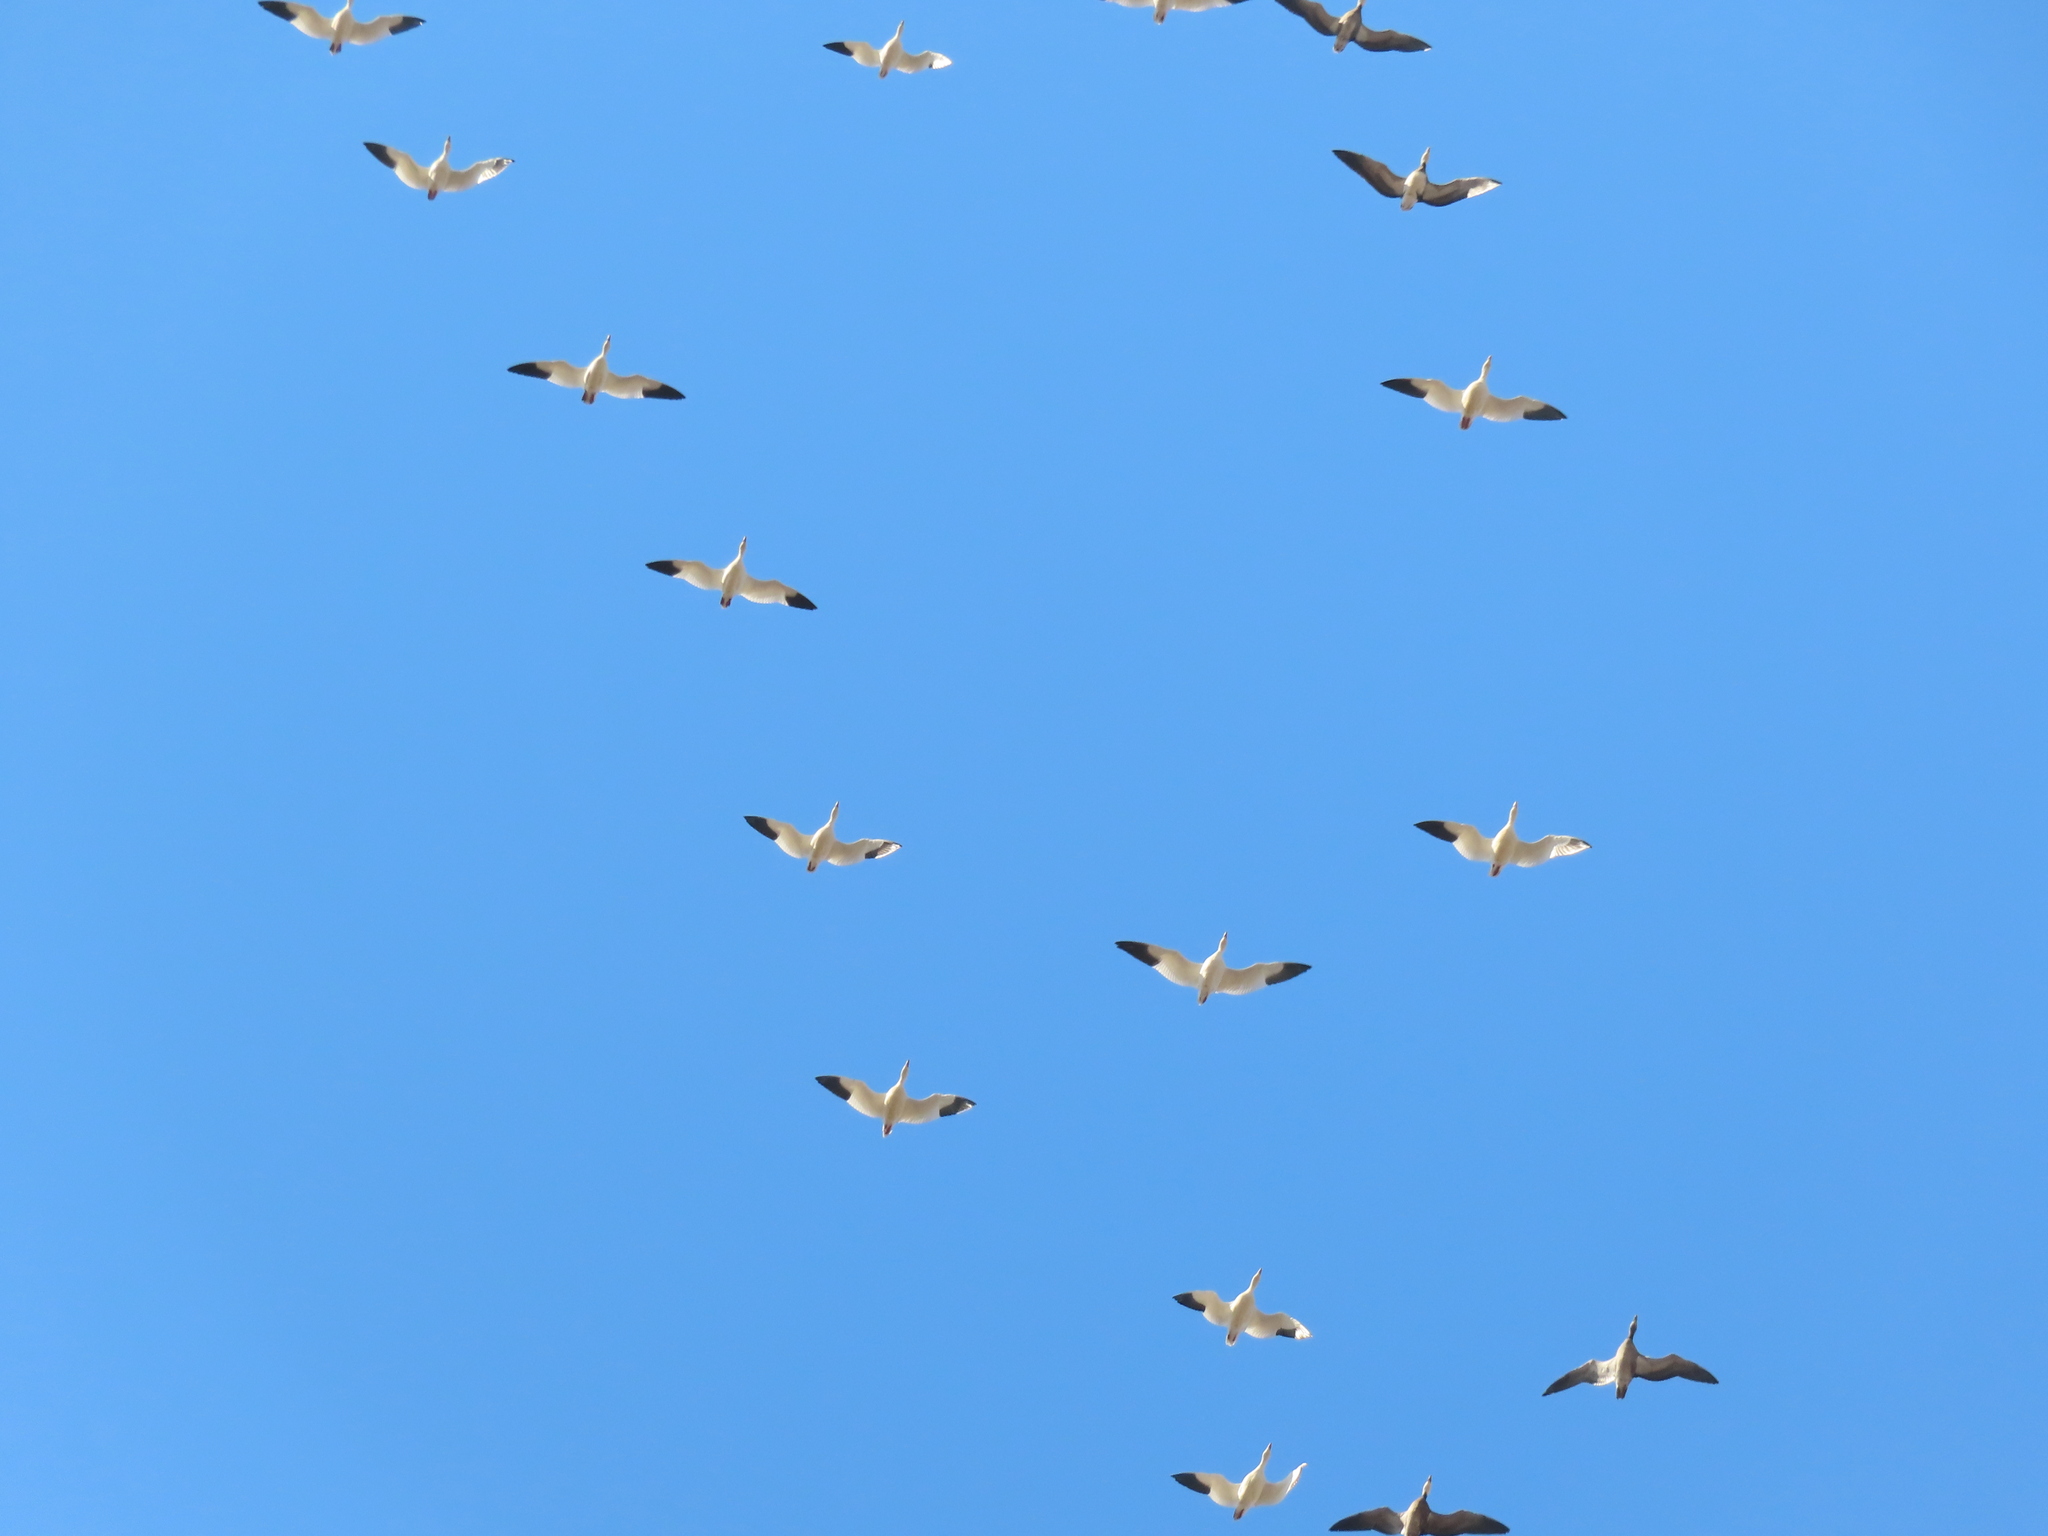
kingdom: Animalia
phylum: Chordata
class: Aves
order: Anseriformes
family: Anatidae
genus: Anser
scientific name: Anser caerulescens
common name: Snow goose
